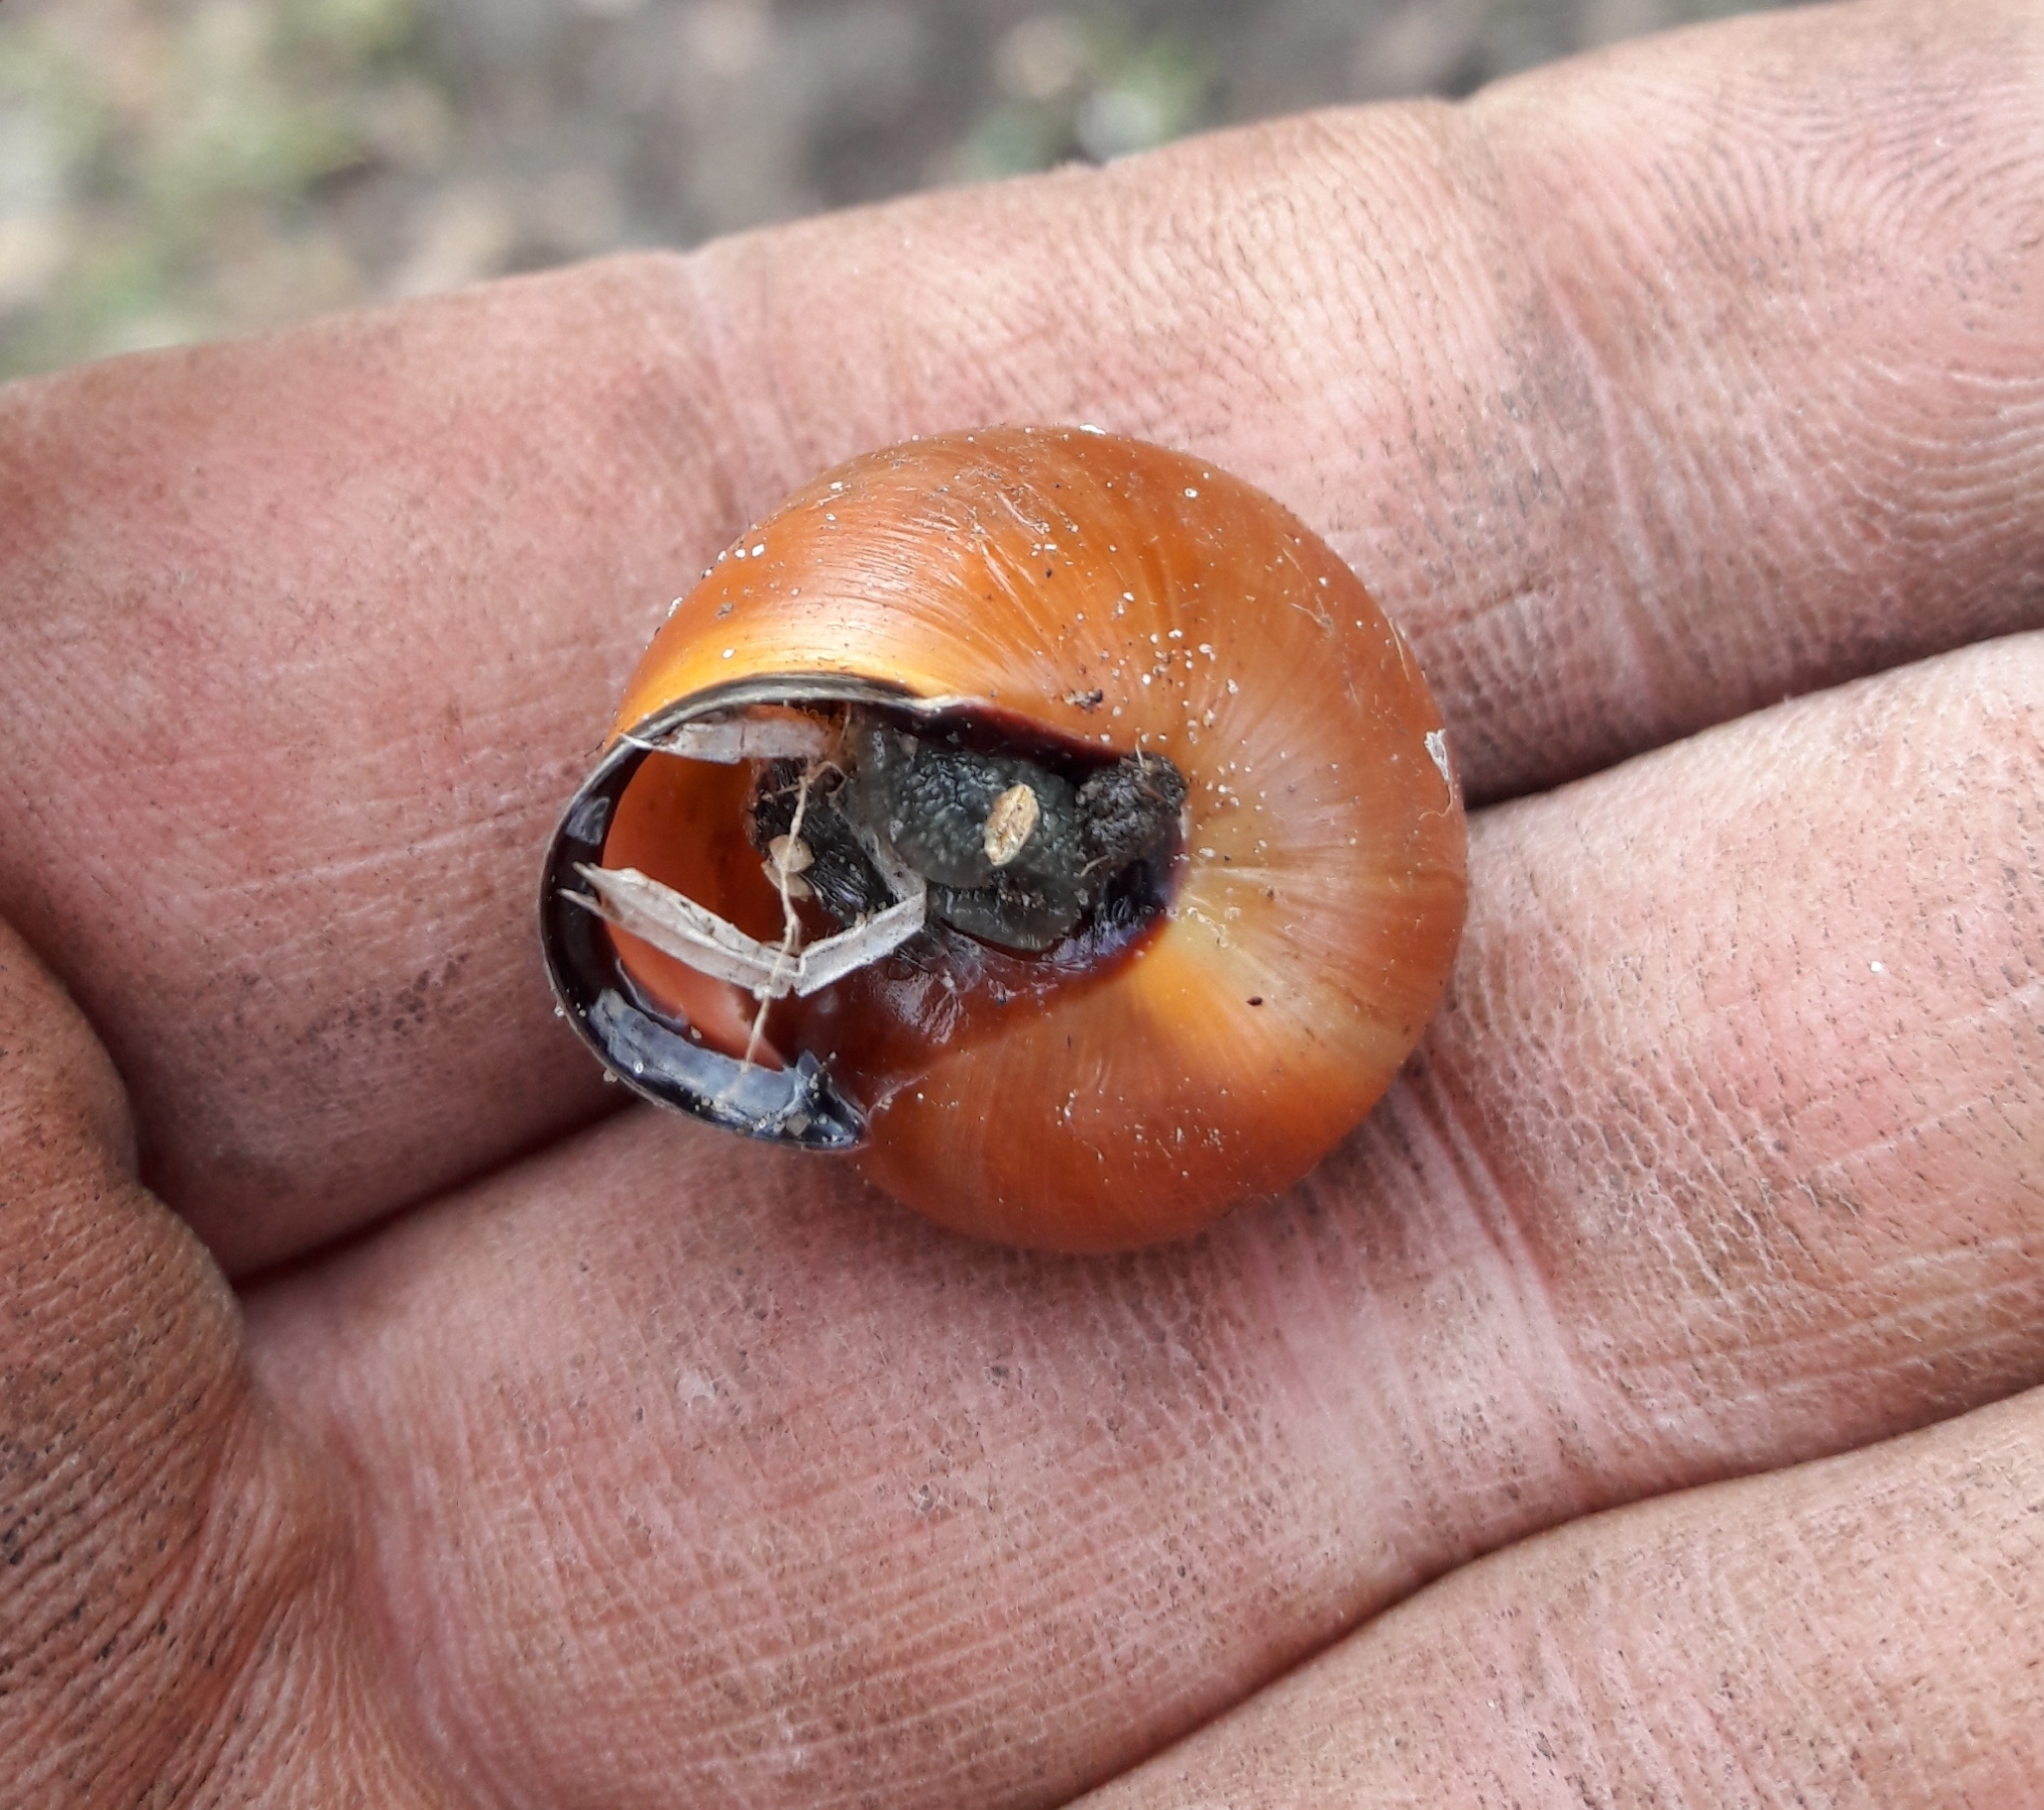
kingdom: Animalia
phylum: Mollusca
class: Gastropoda
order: Stylommatophora
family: Helicidae
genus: Cepaea
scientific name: Cepaea nemoralis
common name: Grovesnail
